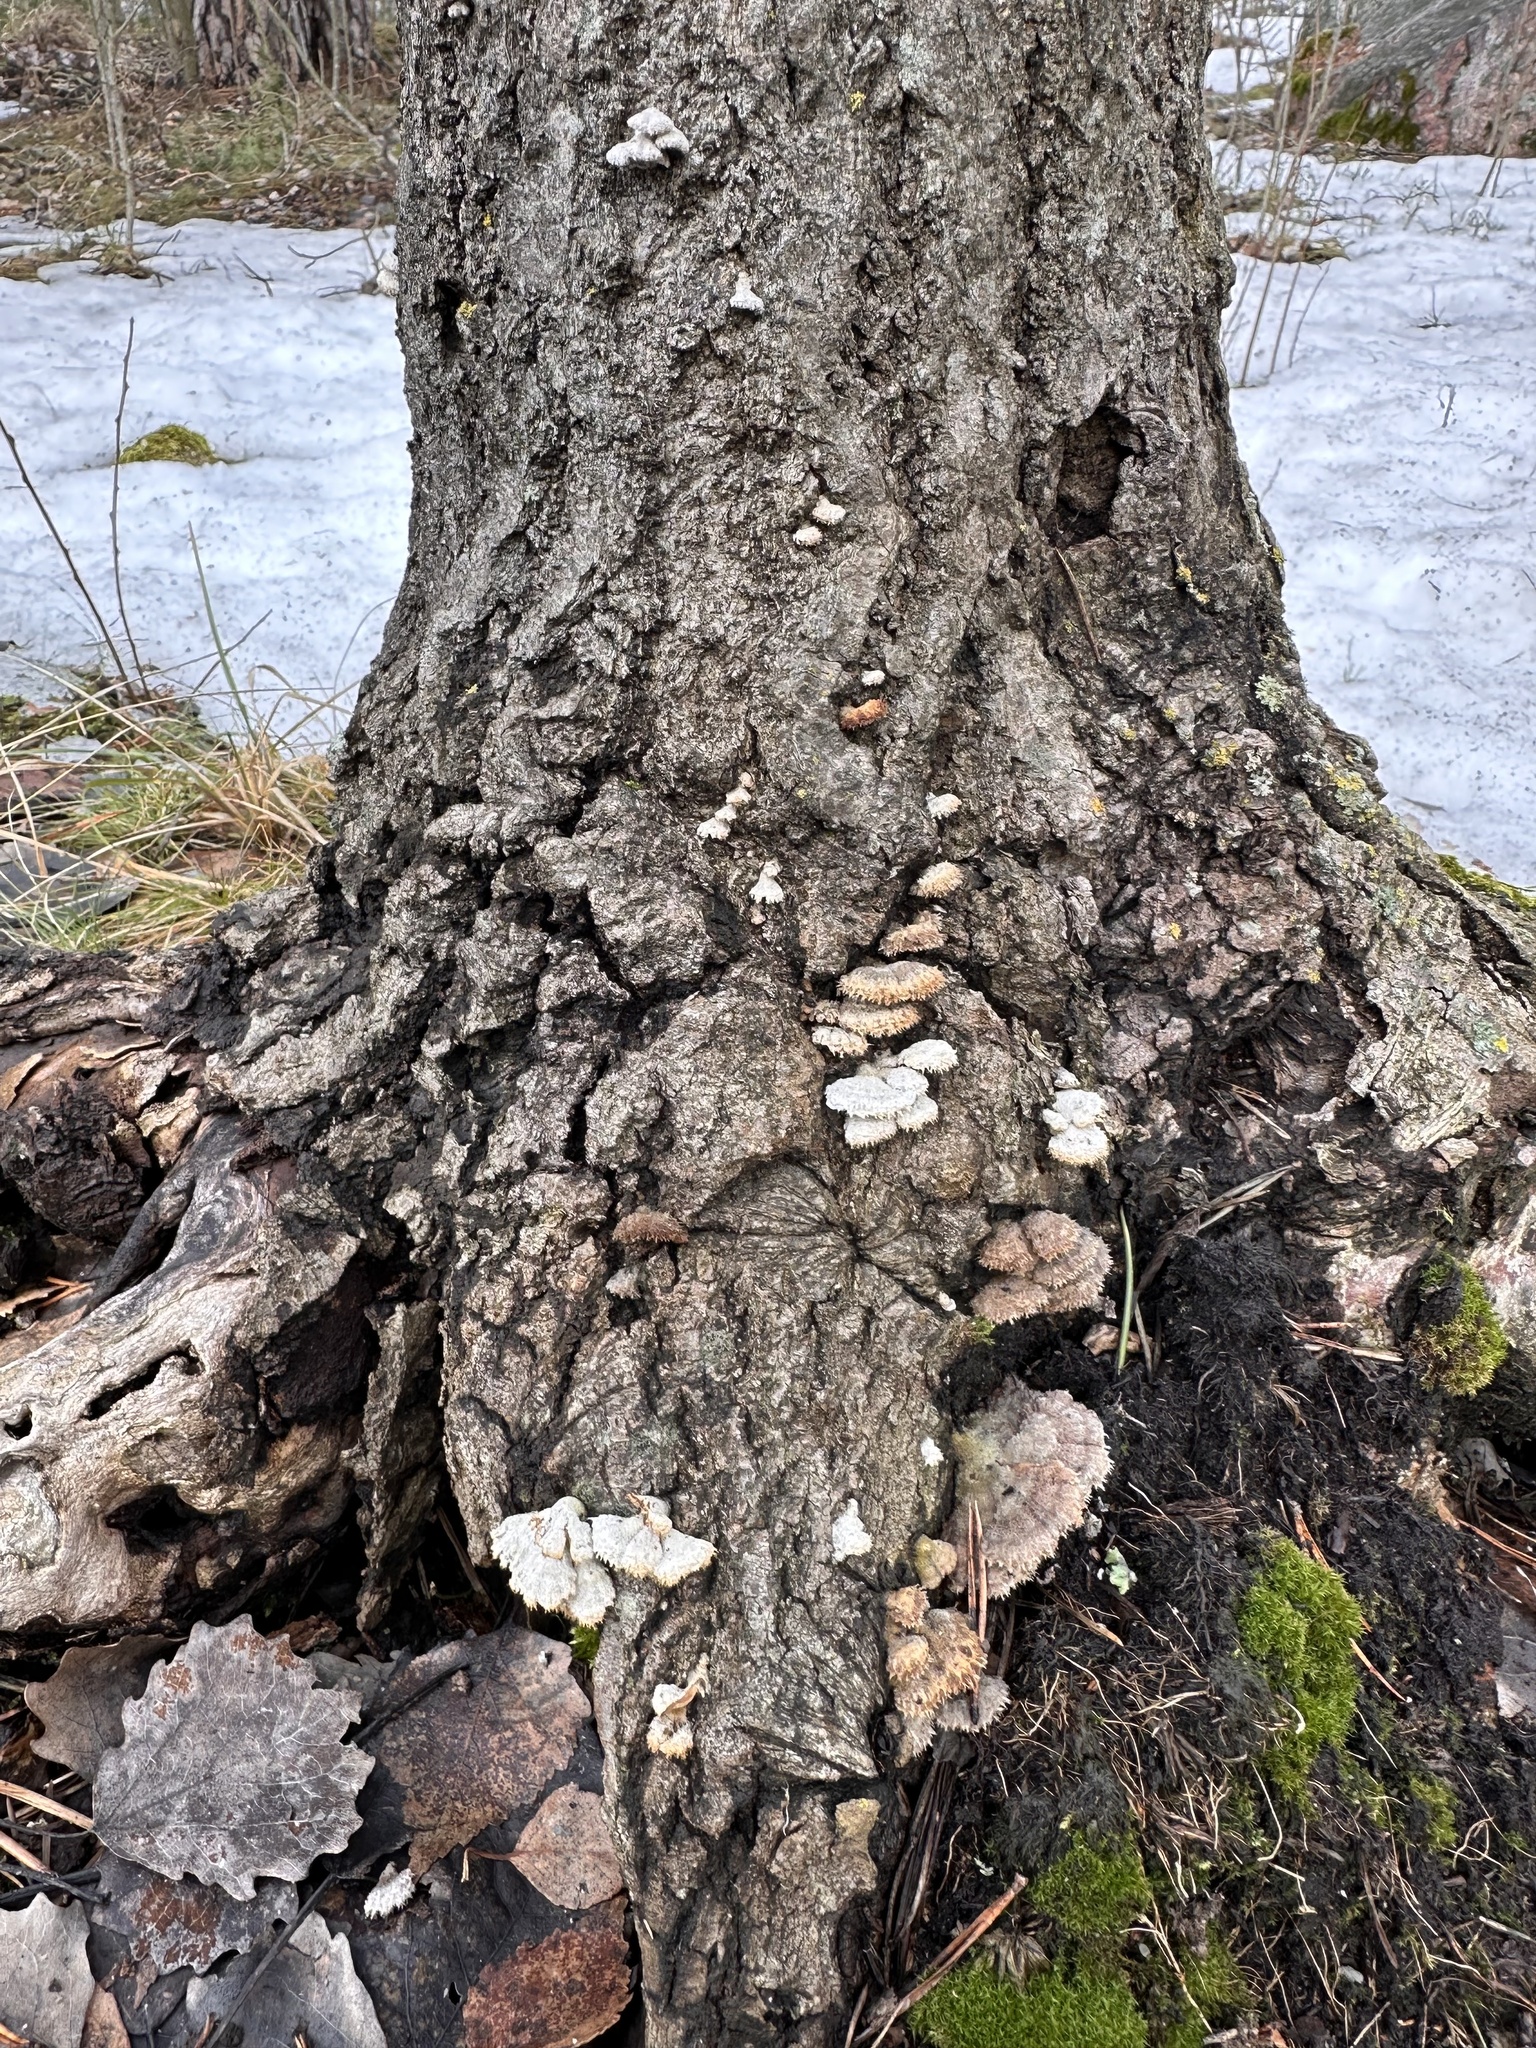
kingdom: Fungi
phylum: Basidiomycota
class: Agaricomycetes
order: Agaricales
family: Schizophyllaceae
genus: Schizophyllum
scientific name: Schizophyllum commune
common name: Common porecrust
